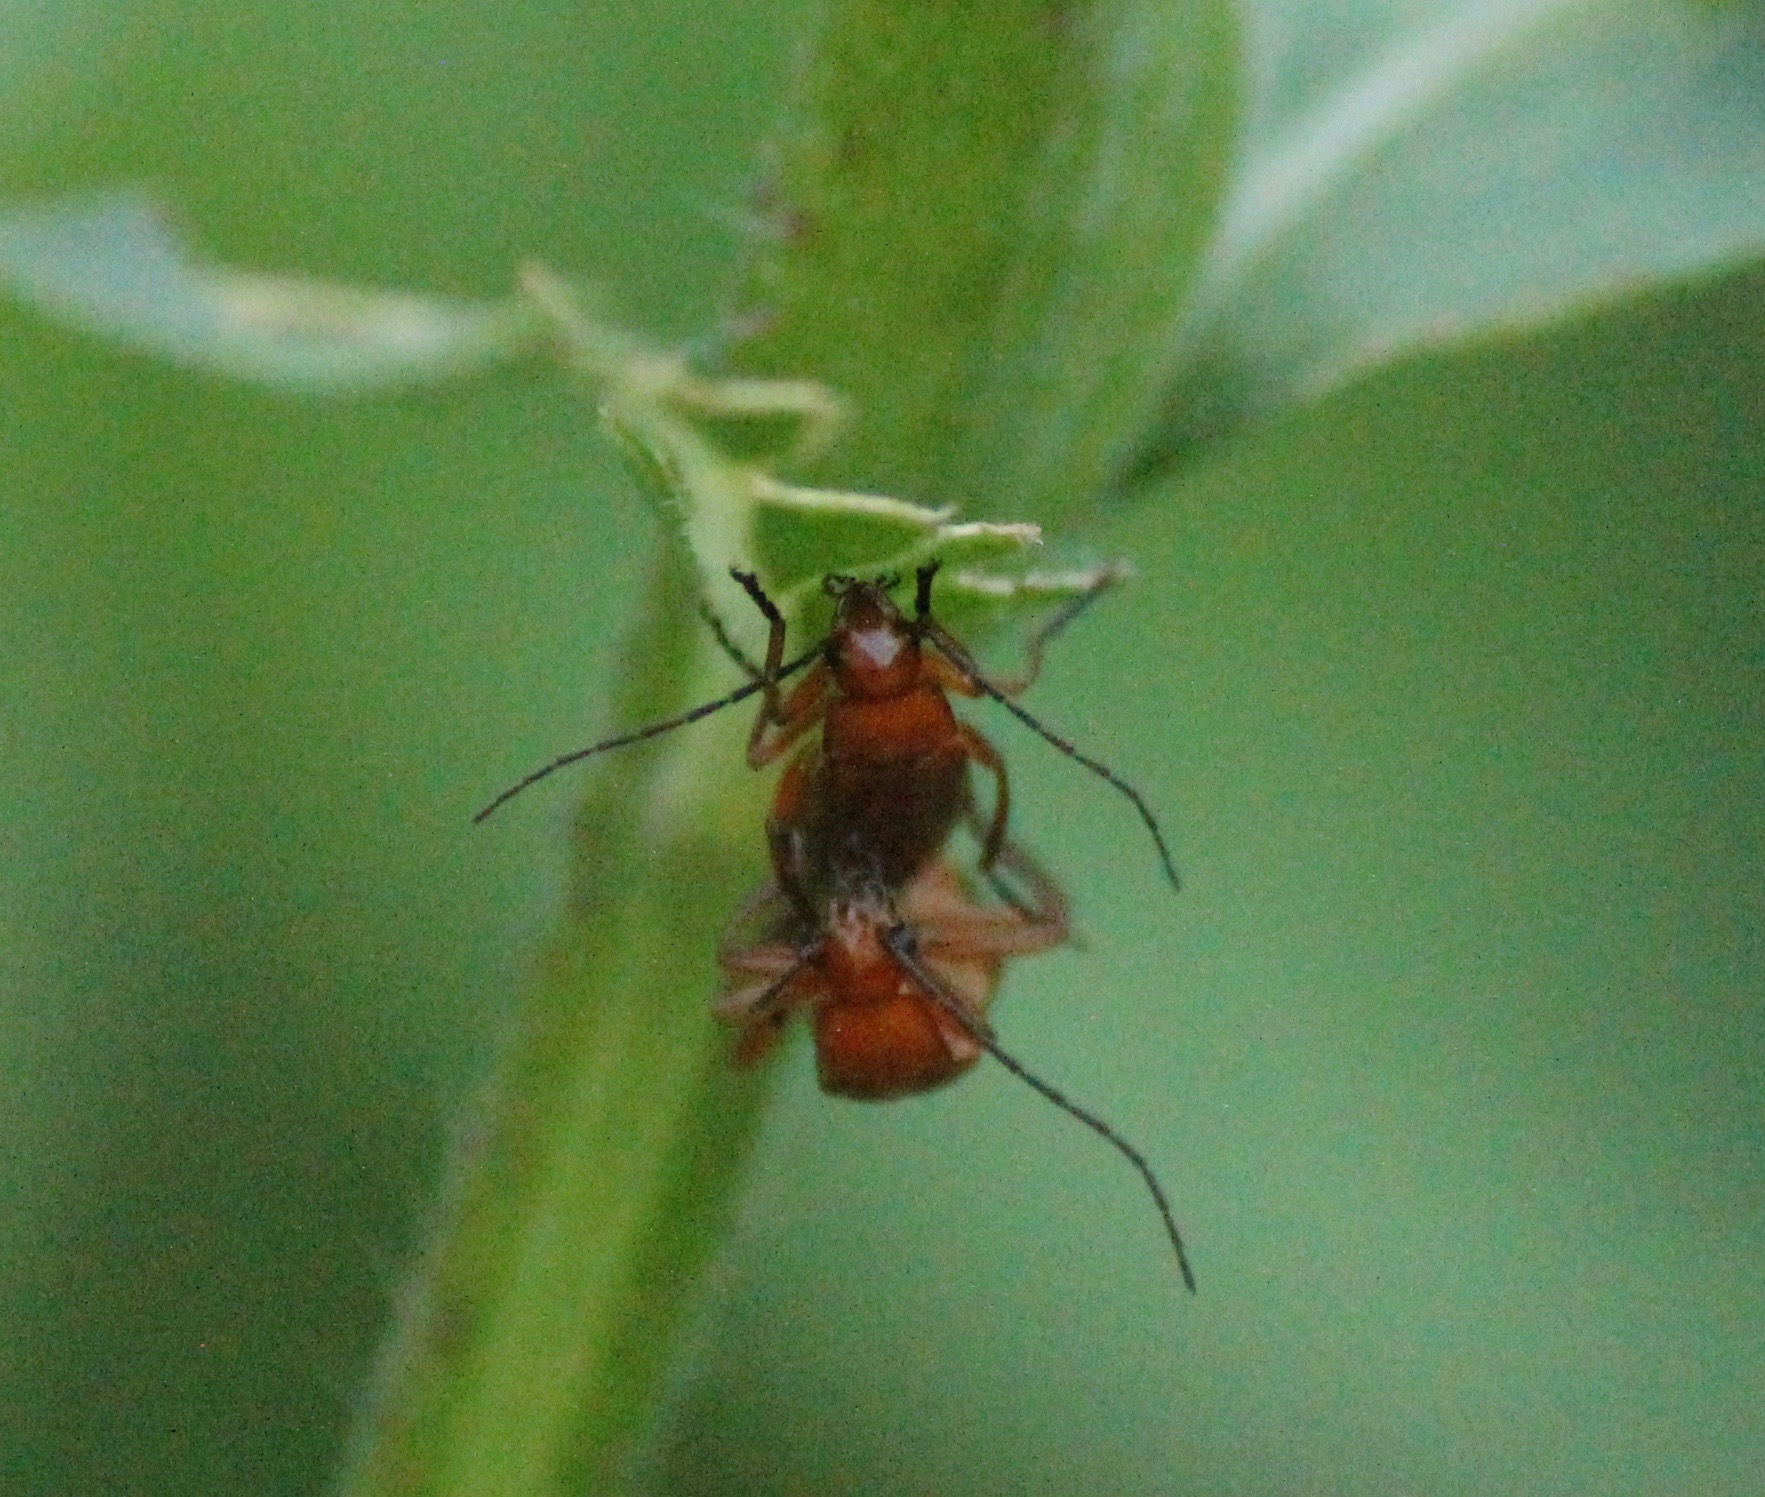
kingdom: Animalia
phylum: Arthropoda
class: Insecta
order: Coleoptera
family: Cantharidae
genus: Rhagonycha
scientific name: Rhagonycha fulva
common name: Common red soldier beetle
